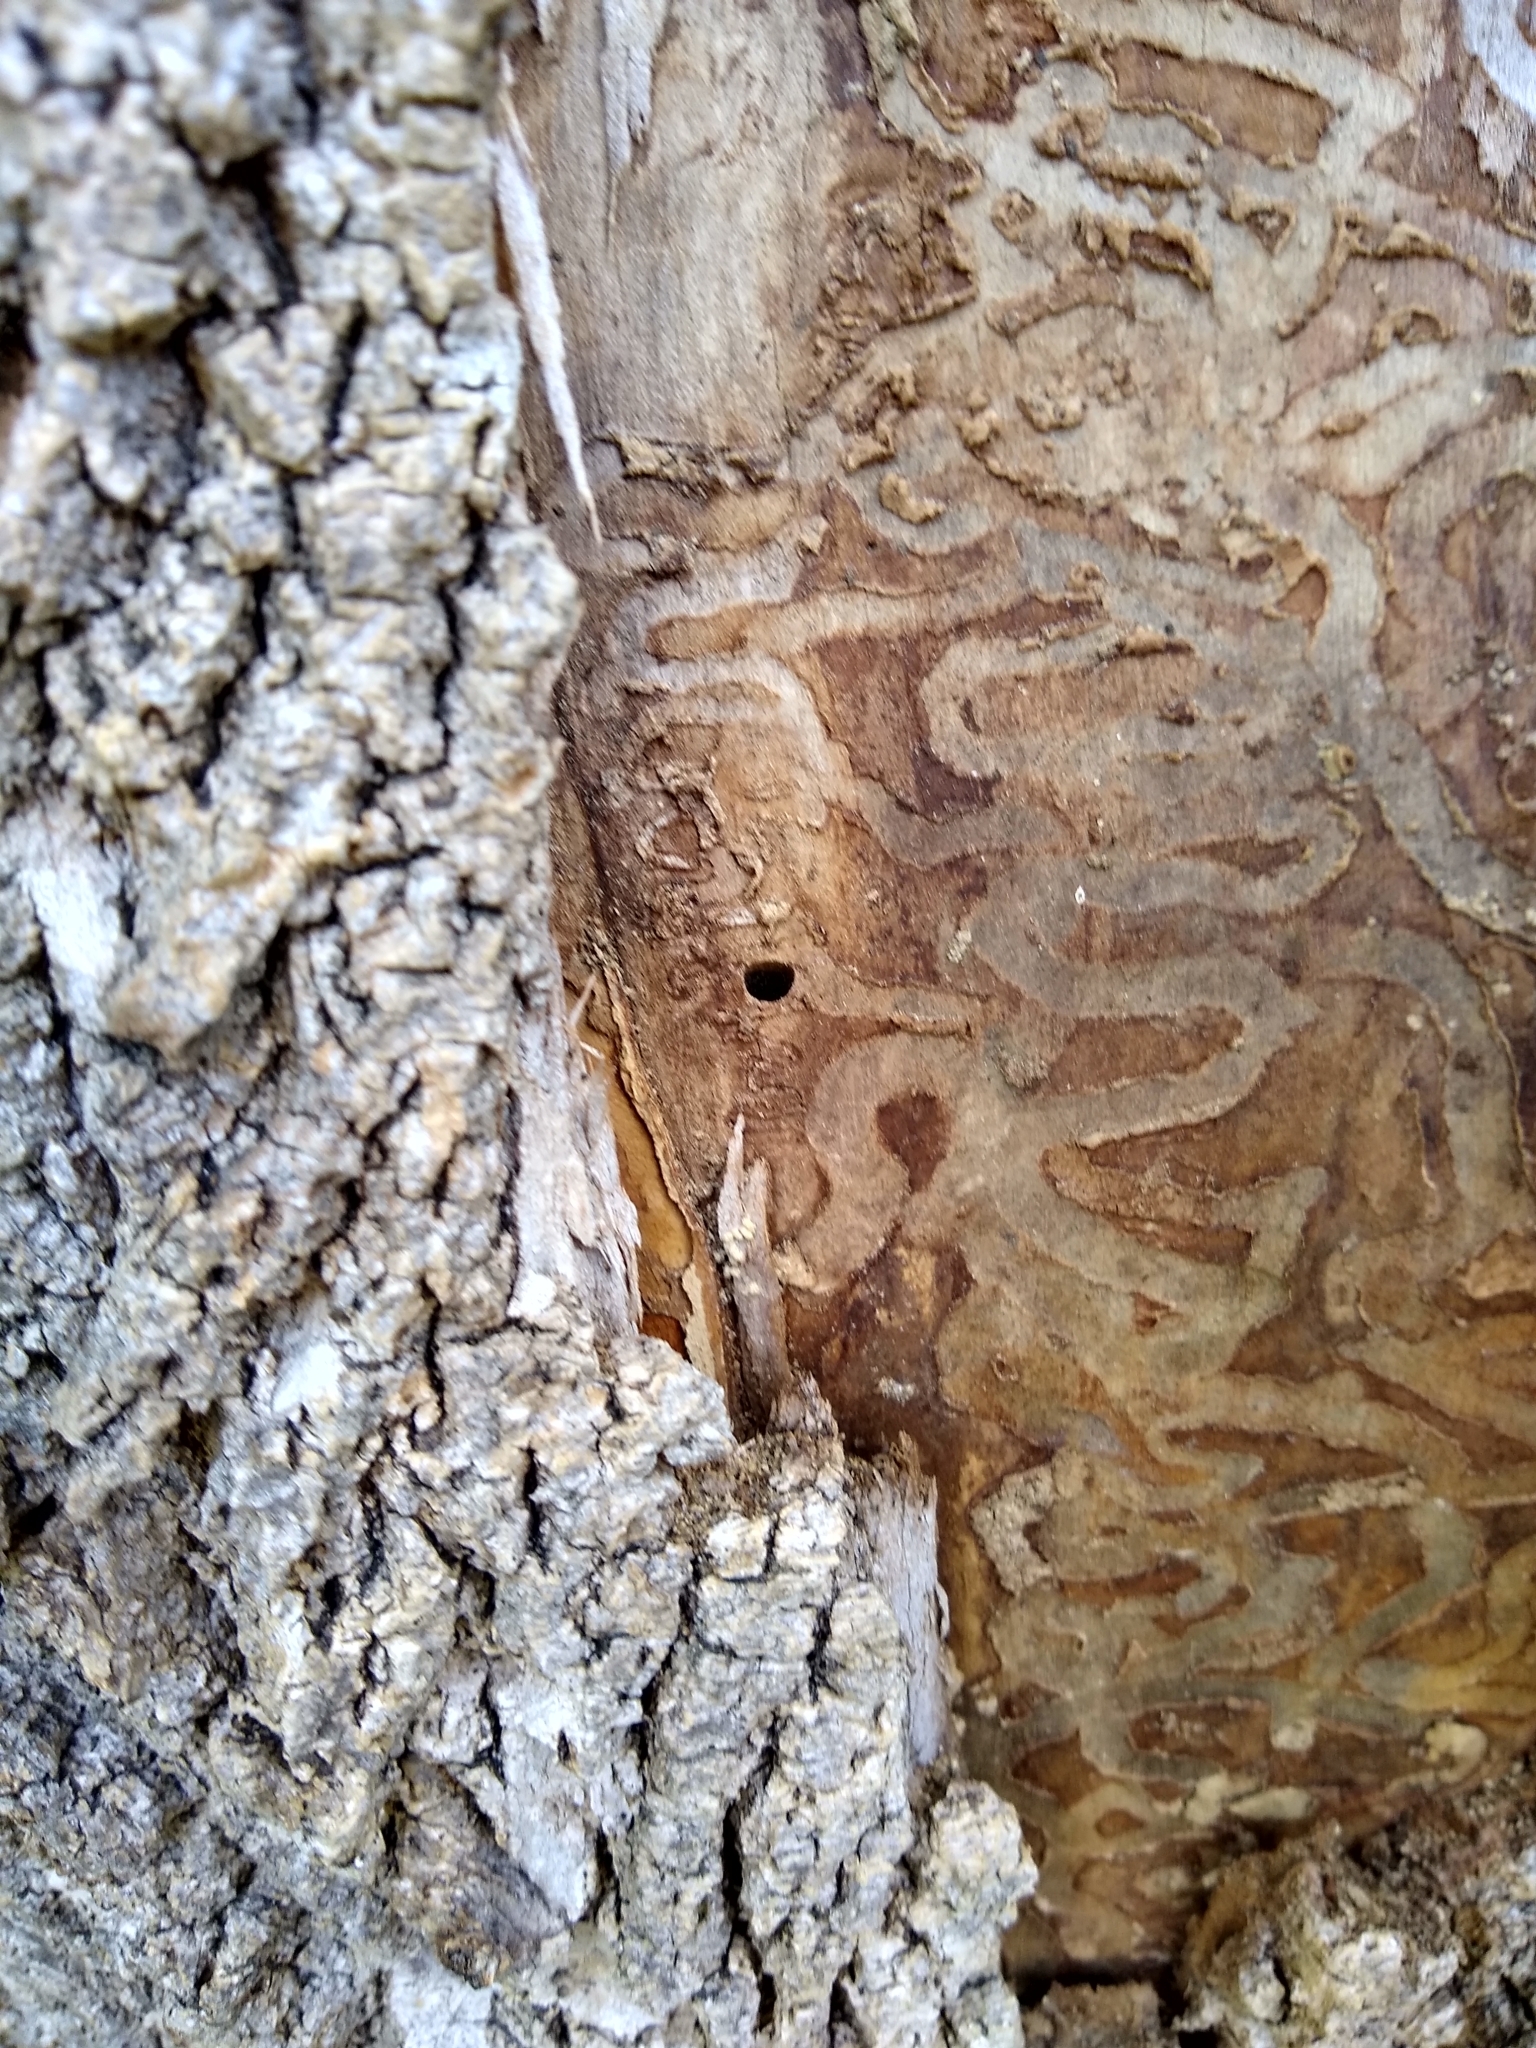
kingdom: Animalia
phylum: Arthropoda
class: Insecta
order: Coleoptera
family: Buprestidae
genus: Agrilus
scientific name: Agrilus planipennis
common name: Emerald ash borer
